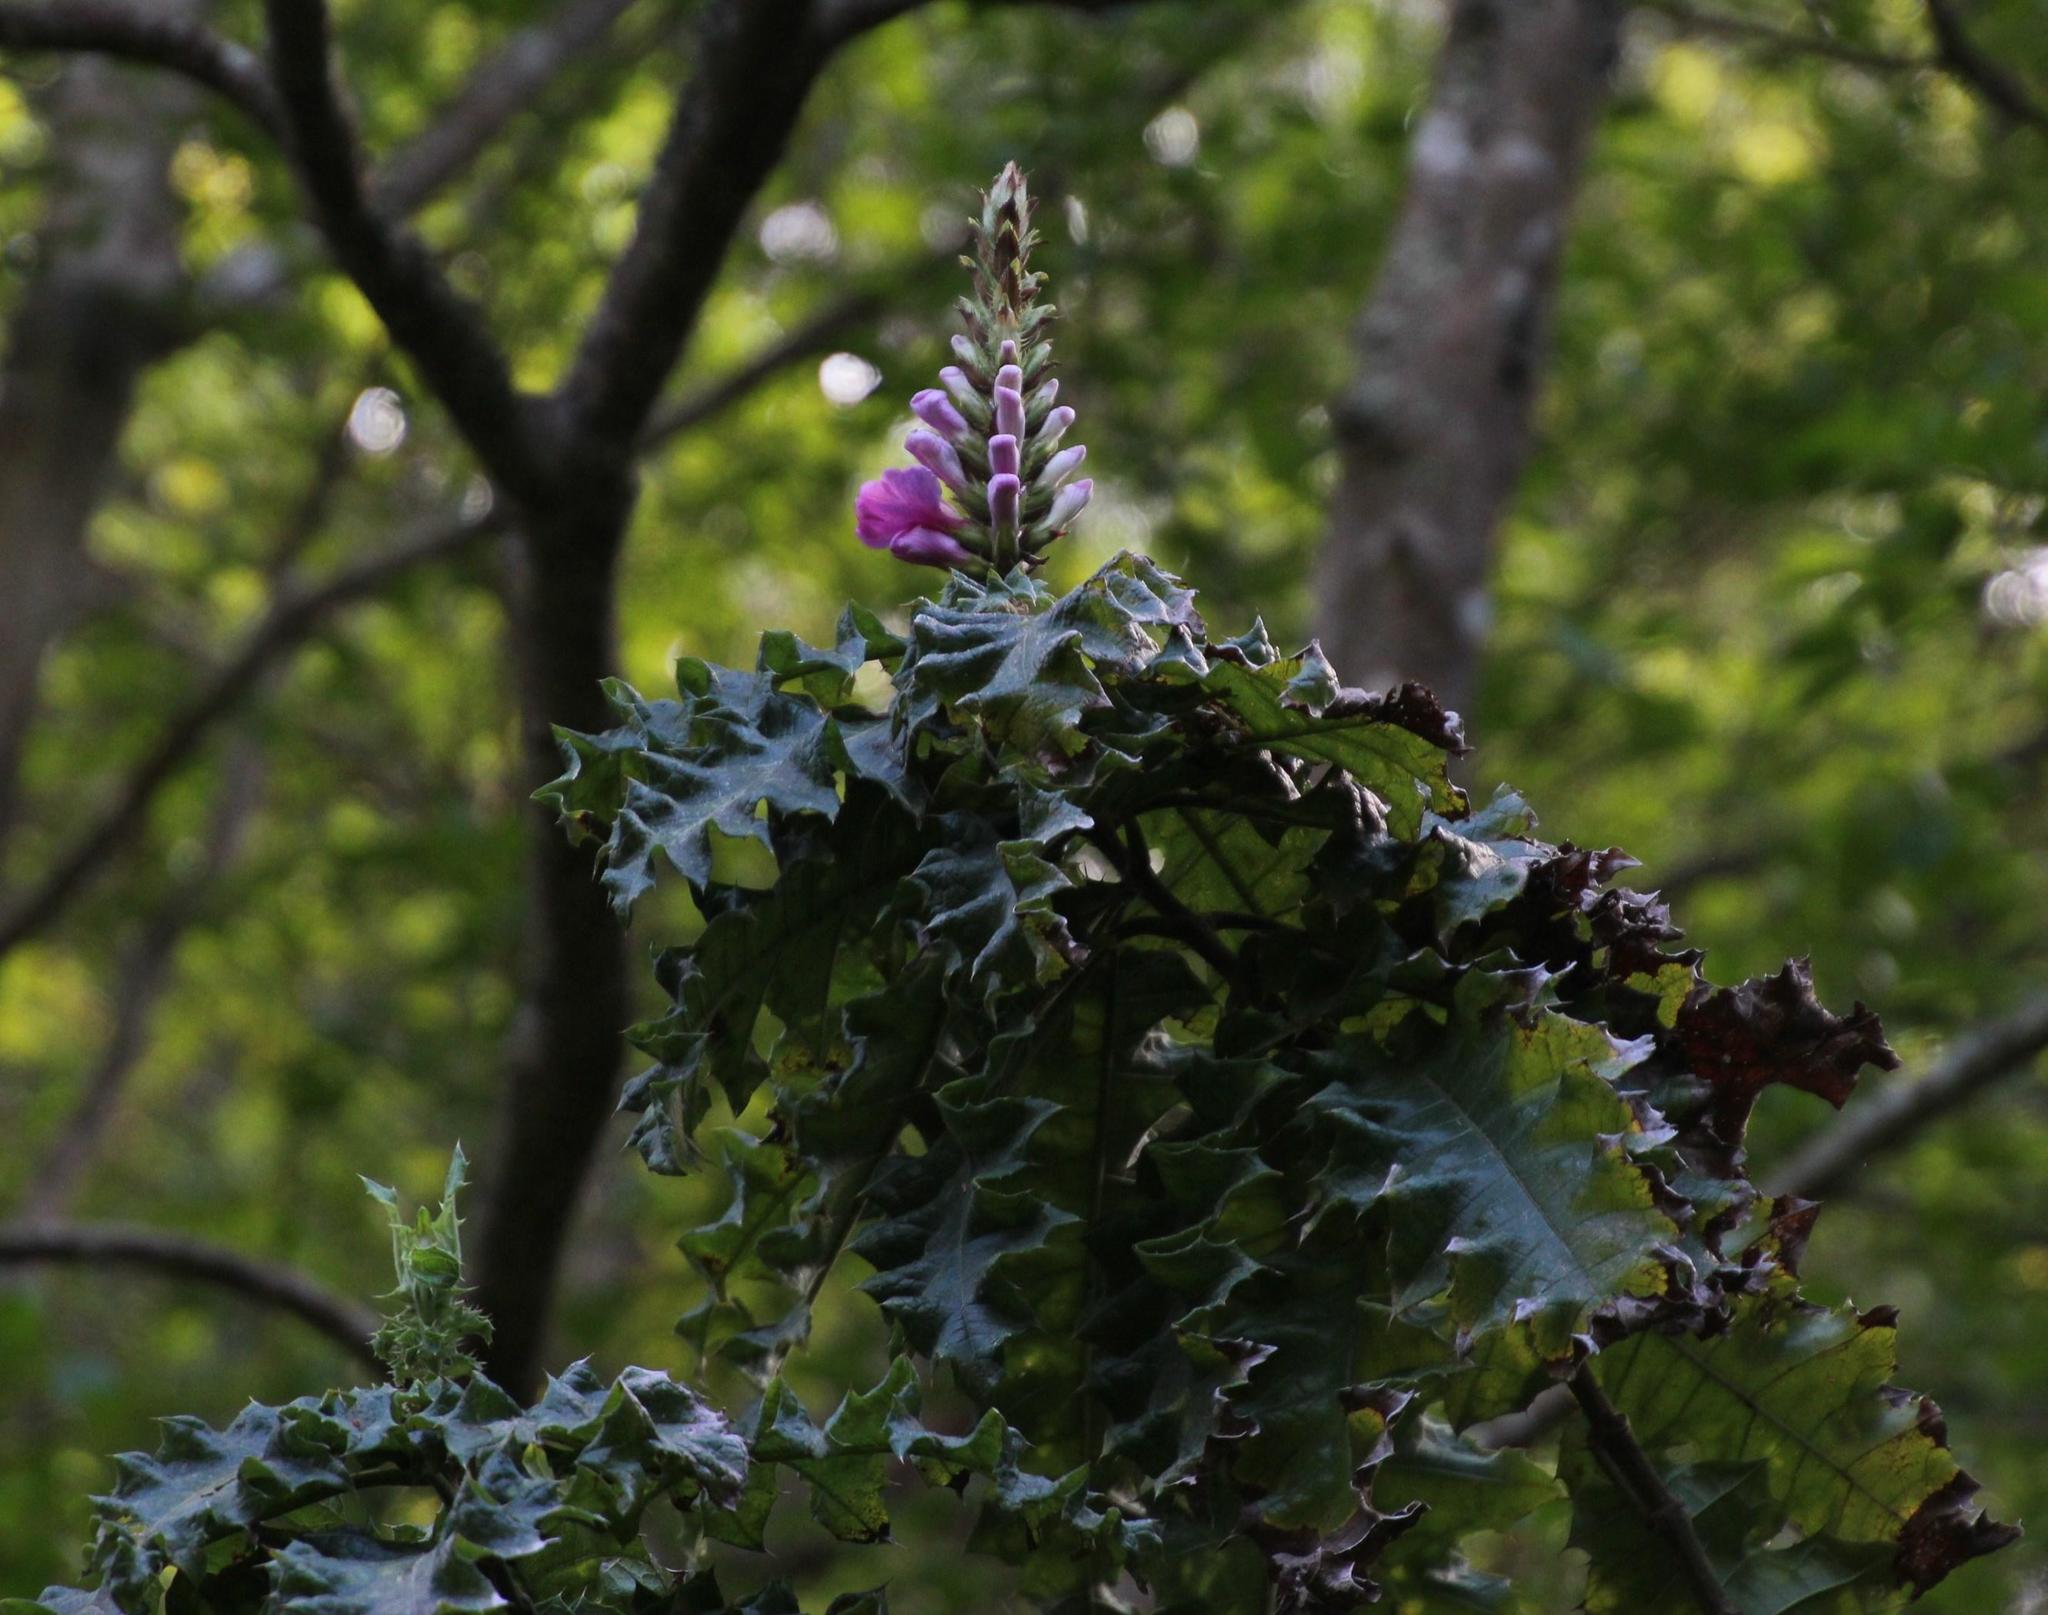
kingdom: Plantae
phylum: Tracheophyta
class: Magnoliopsida
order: Lamiales
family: Acanthaceae
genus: Acanthus
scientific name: Acanthus polystachyus
